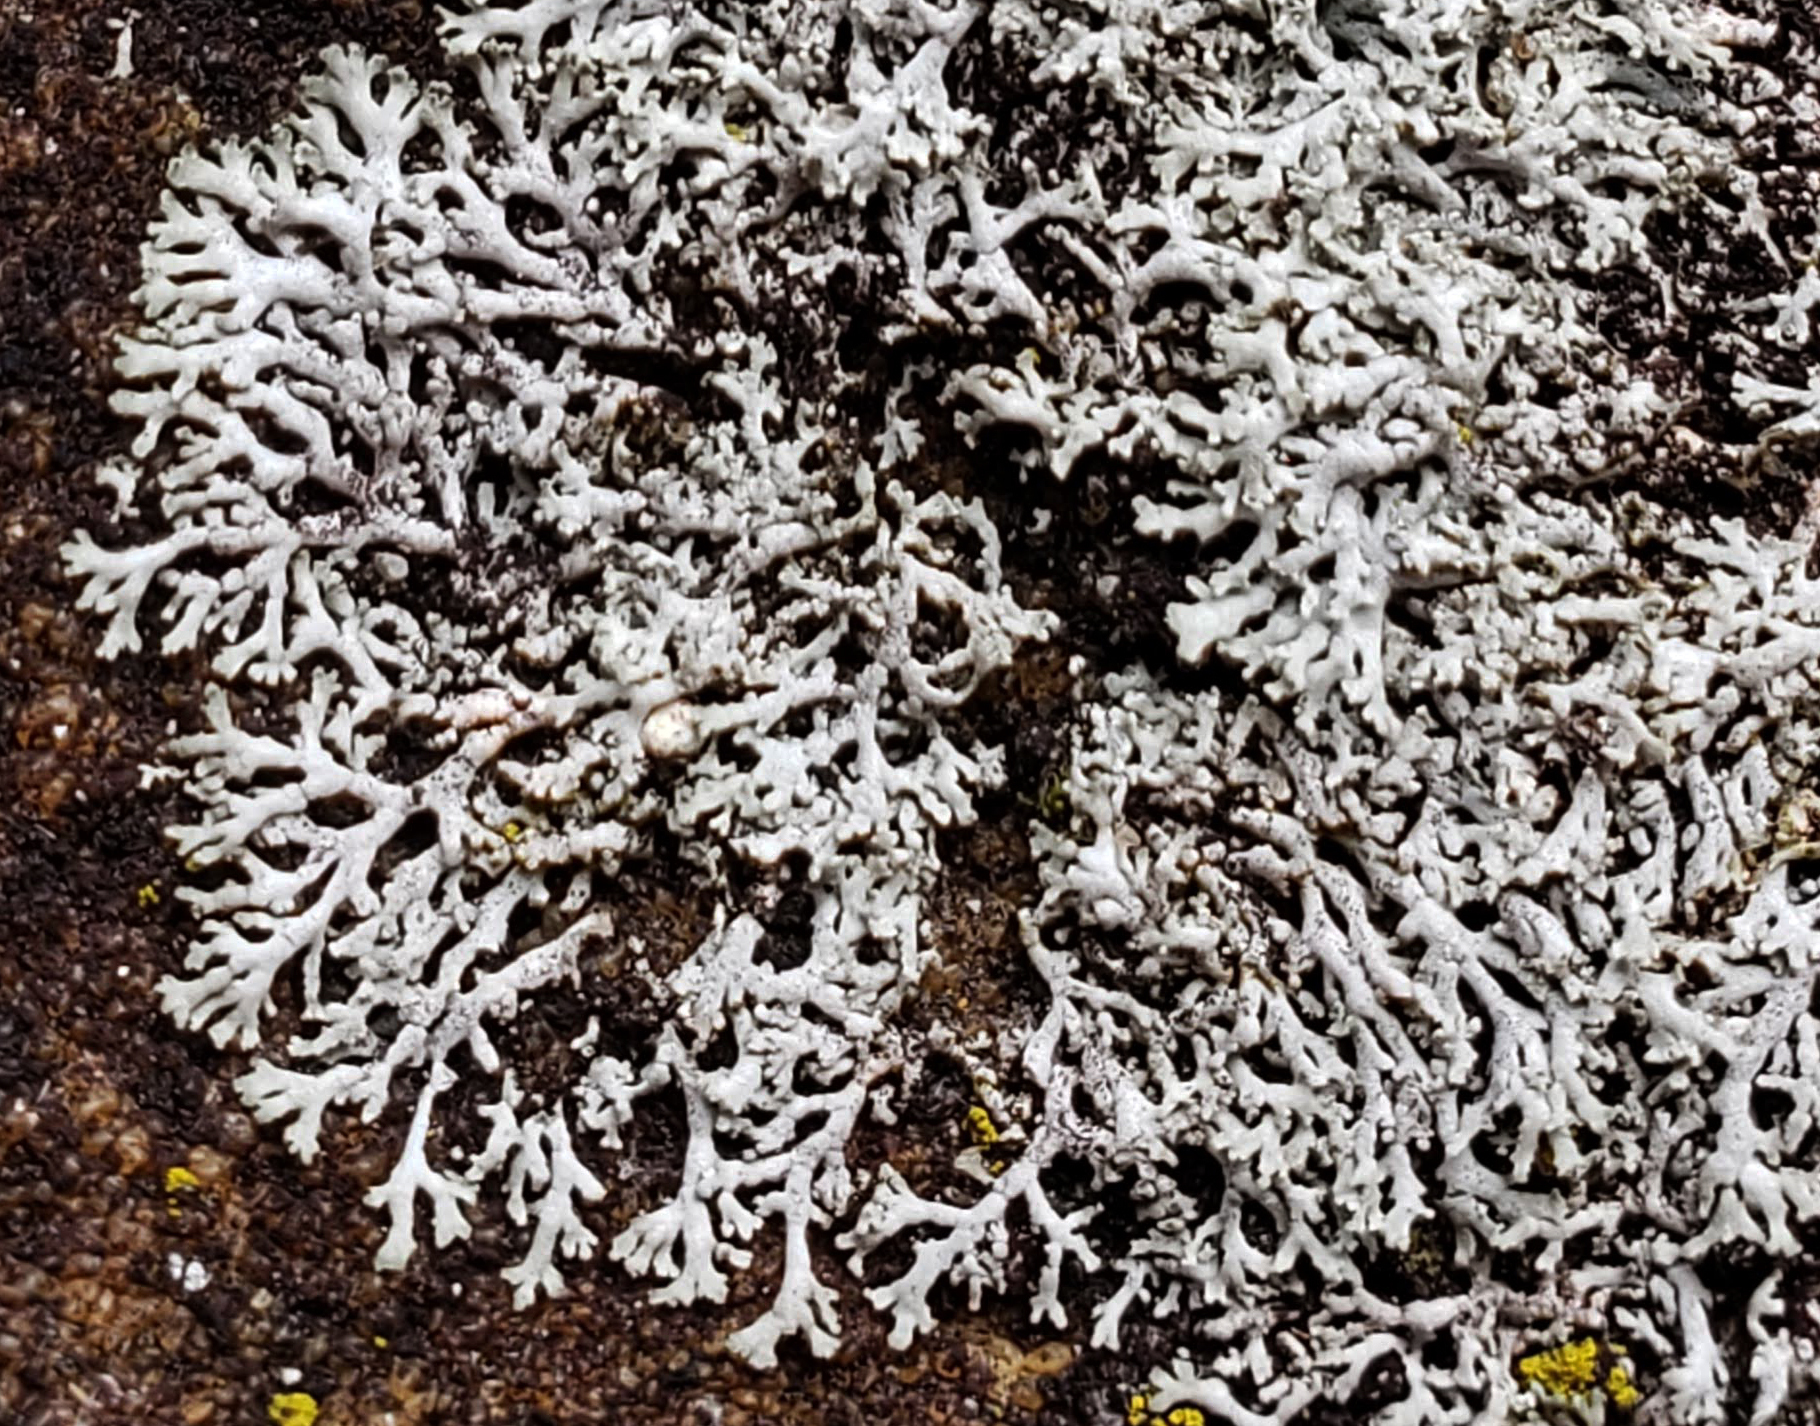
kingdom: Fungi
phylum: Ascomycota
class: Lecanoromycetes
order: Caliciales
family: Physciaceae
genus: Physcia
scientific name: Physcia thomsoniana
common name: Thomson's rosette lichen
